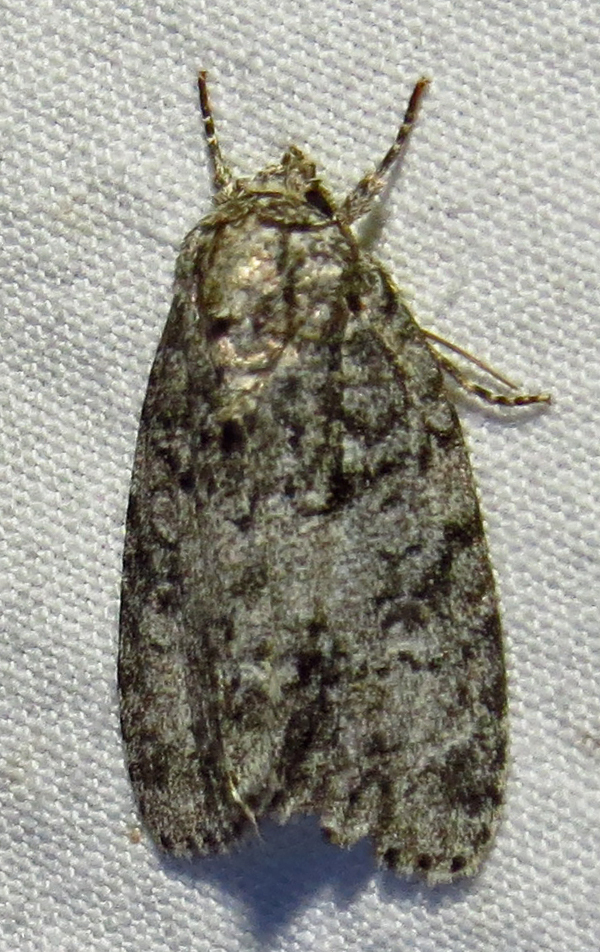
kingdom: Animalia
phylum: Arthropoda
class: Insecta
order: Lepidoptera
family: Noctuidae
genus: Acronicta
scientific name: Acronicta retardata
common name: Maple dagger
